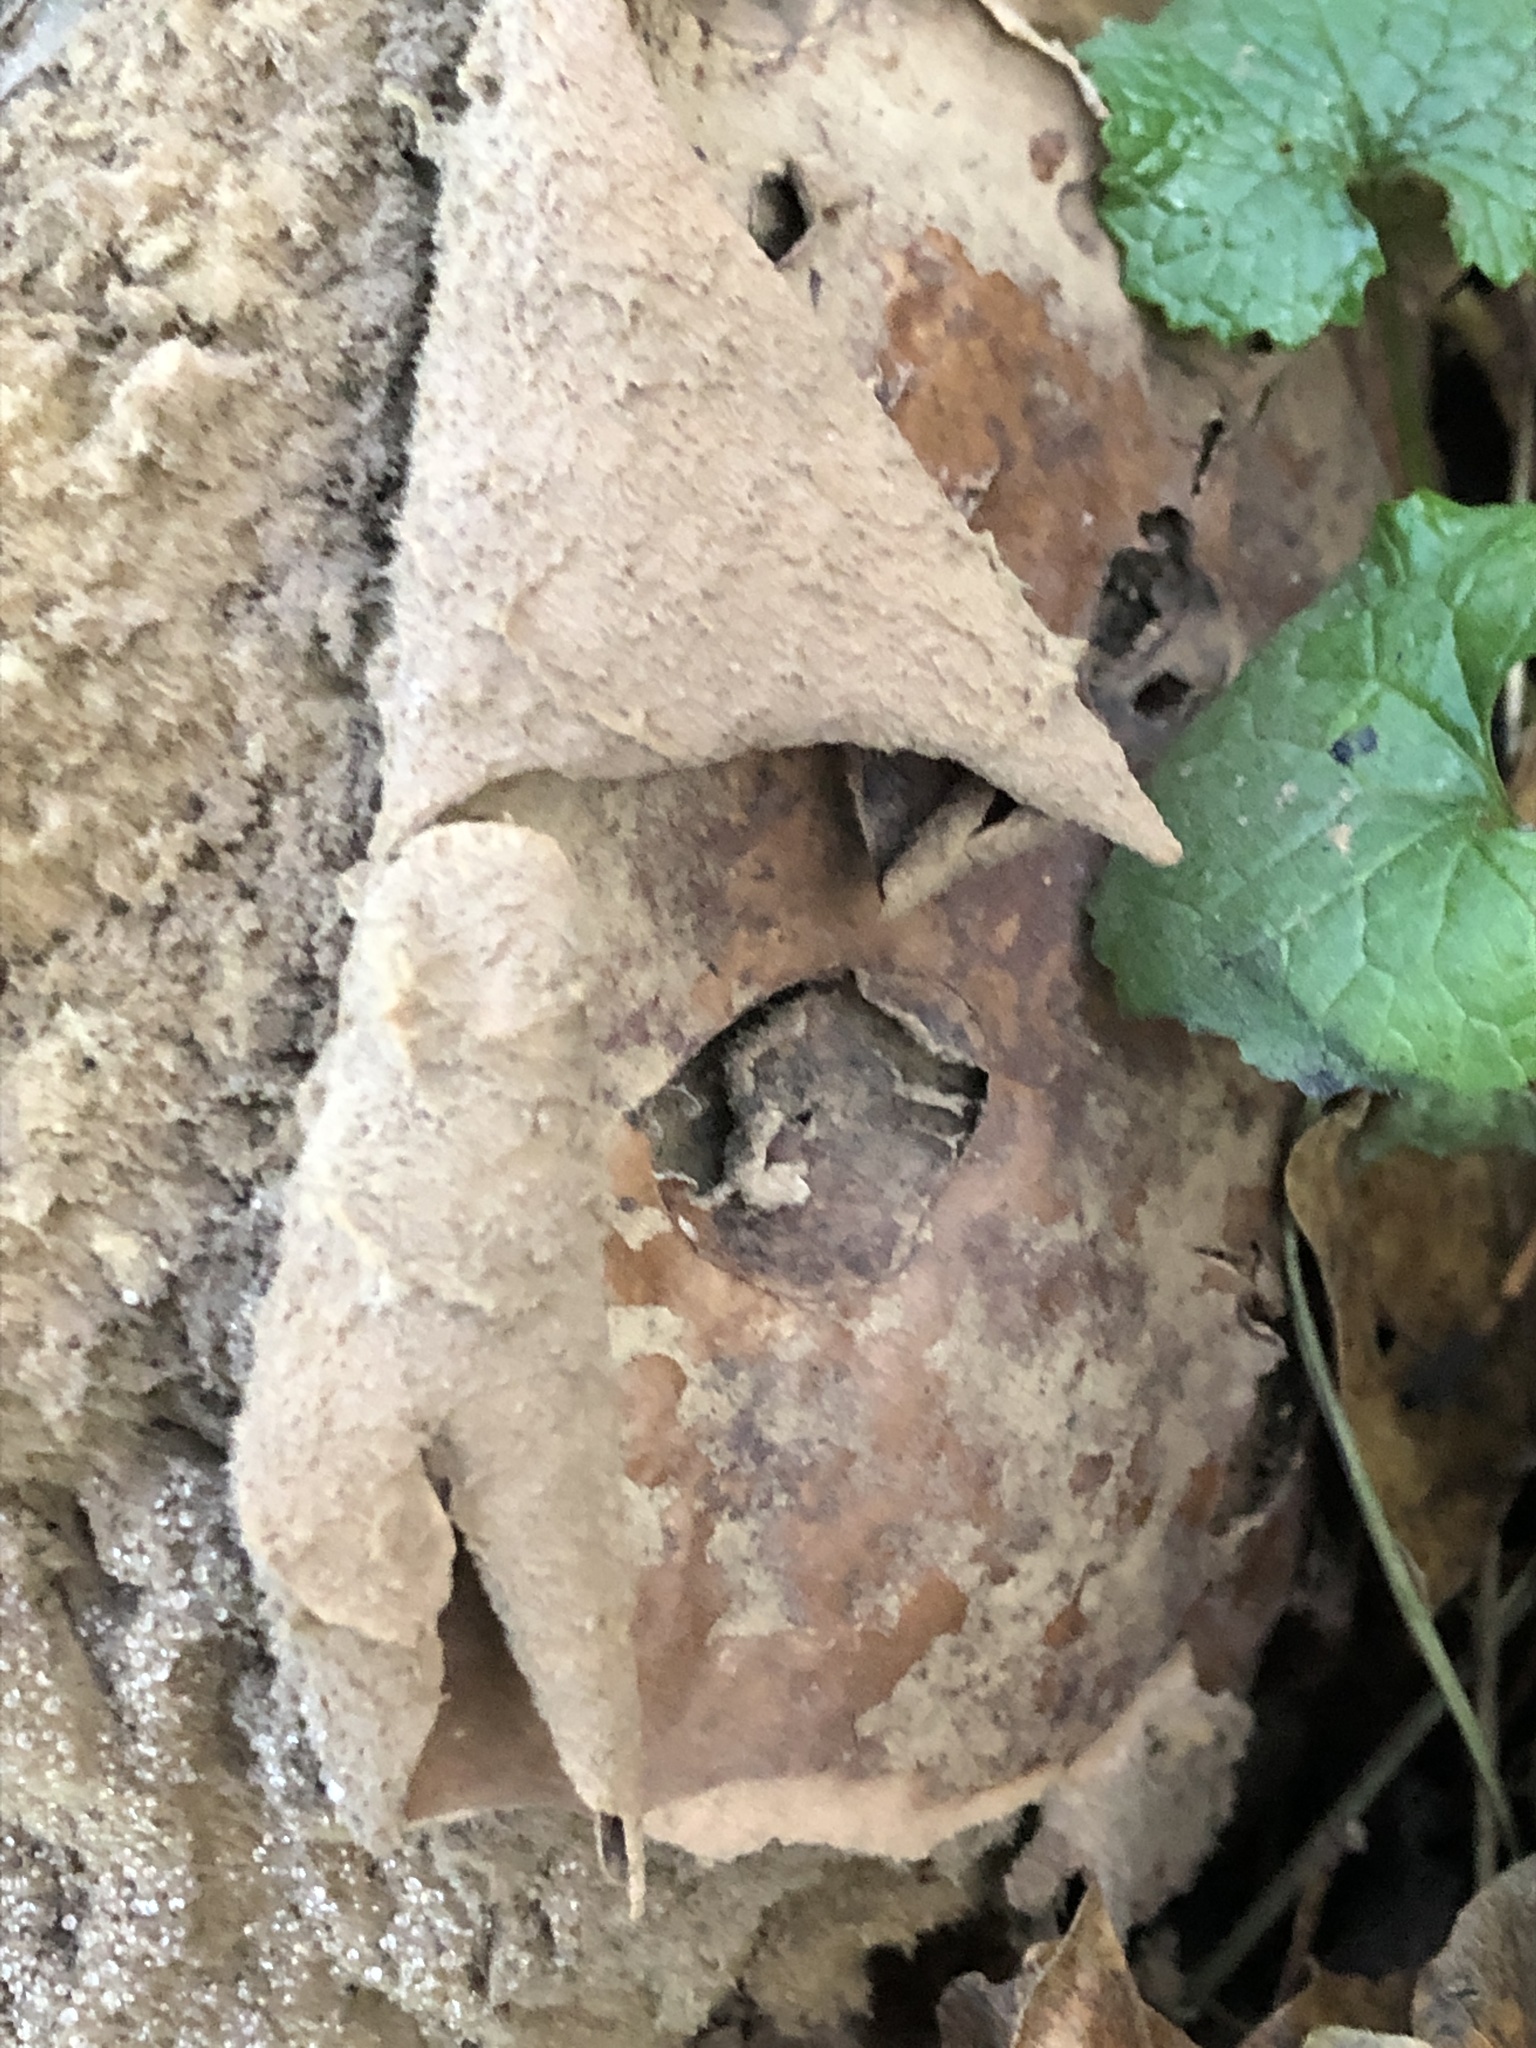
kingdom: Fungi
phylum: Basidiomycota
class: Agaricomycetes
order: Agaricales
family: Lycoperdaceae
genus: Calvatia
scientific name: Calvatia gigantea
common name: Giant puffball
